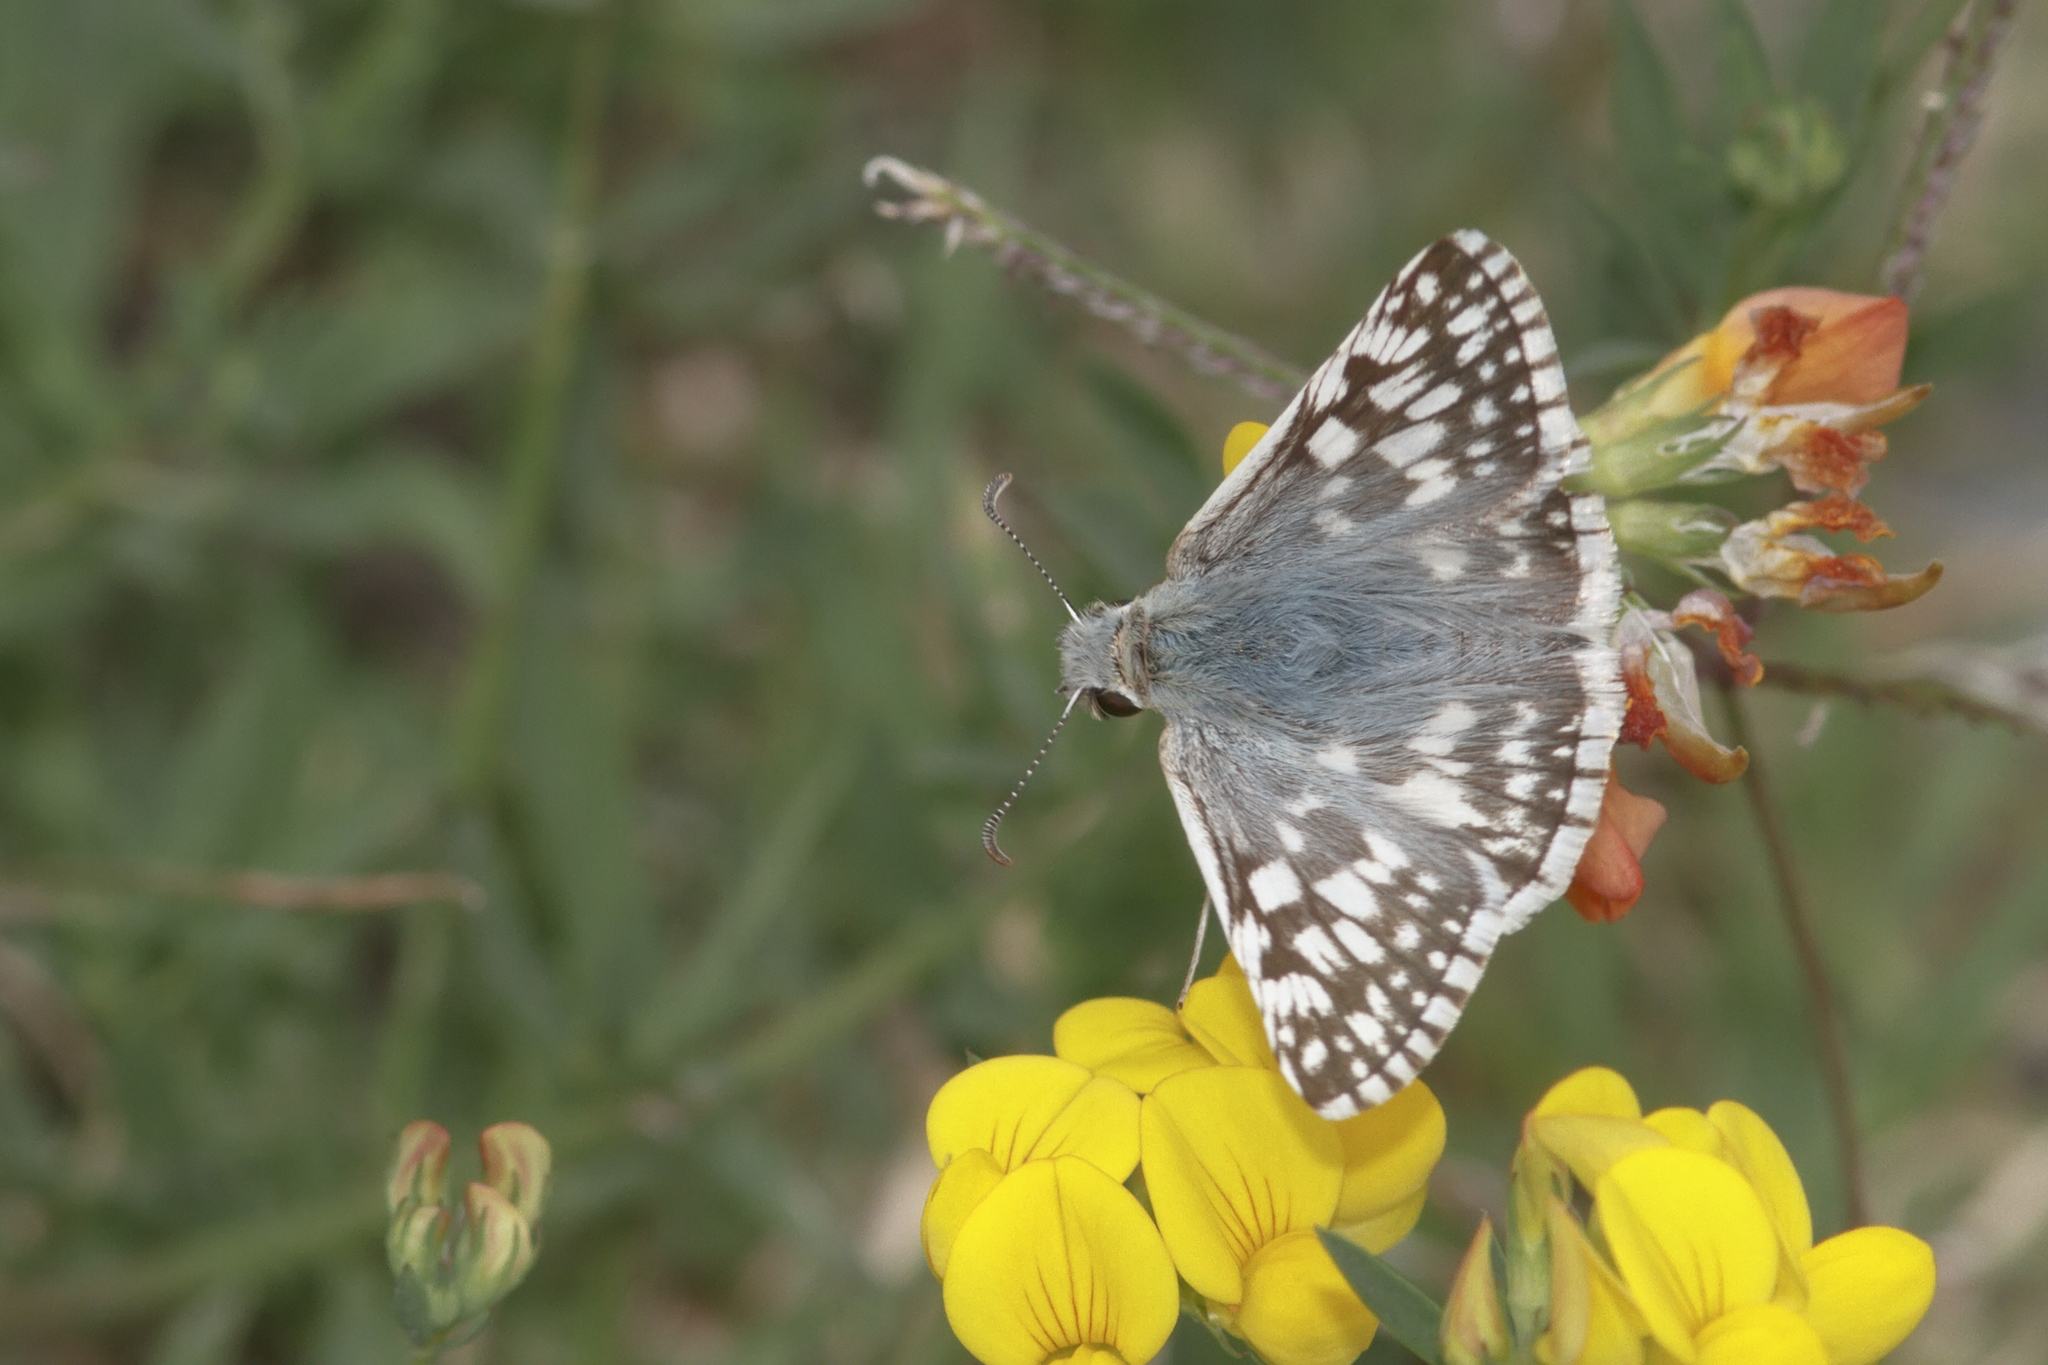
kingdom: Animalia
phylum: Arthropoda
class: Insecta
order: Lepidoptera
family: Hesperiidae
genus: Heliopetes
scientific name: Heliopetes americanus
